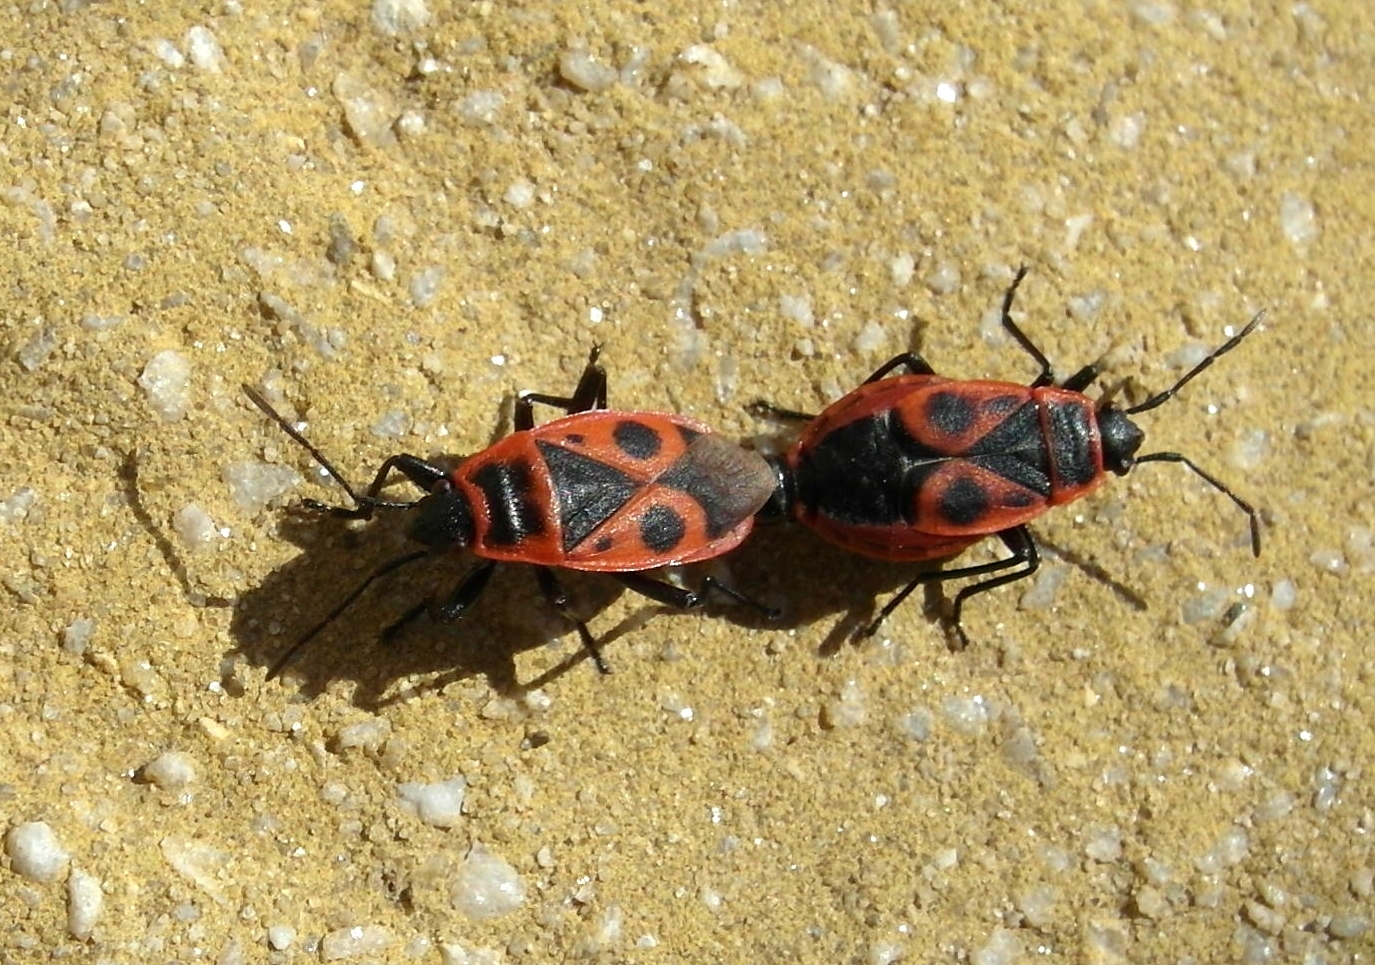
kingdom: Animalia
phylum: Arthropoda
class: Insecta
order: Hemiptera
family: Pyrrhocoridae
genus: Pyrrhocoris
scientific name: Pyrrhocoris apterus
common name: Firebug
